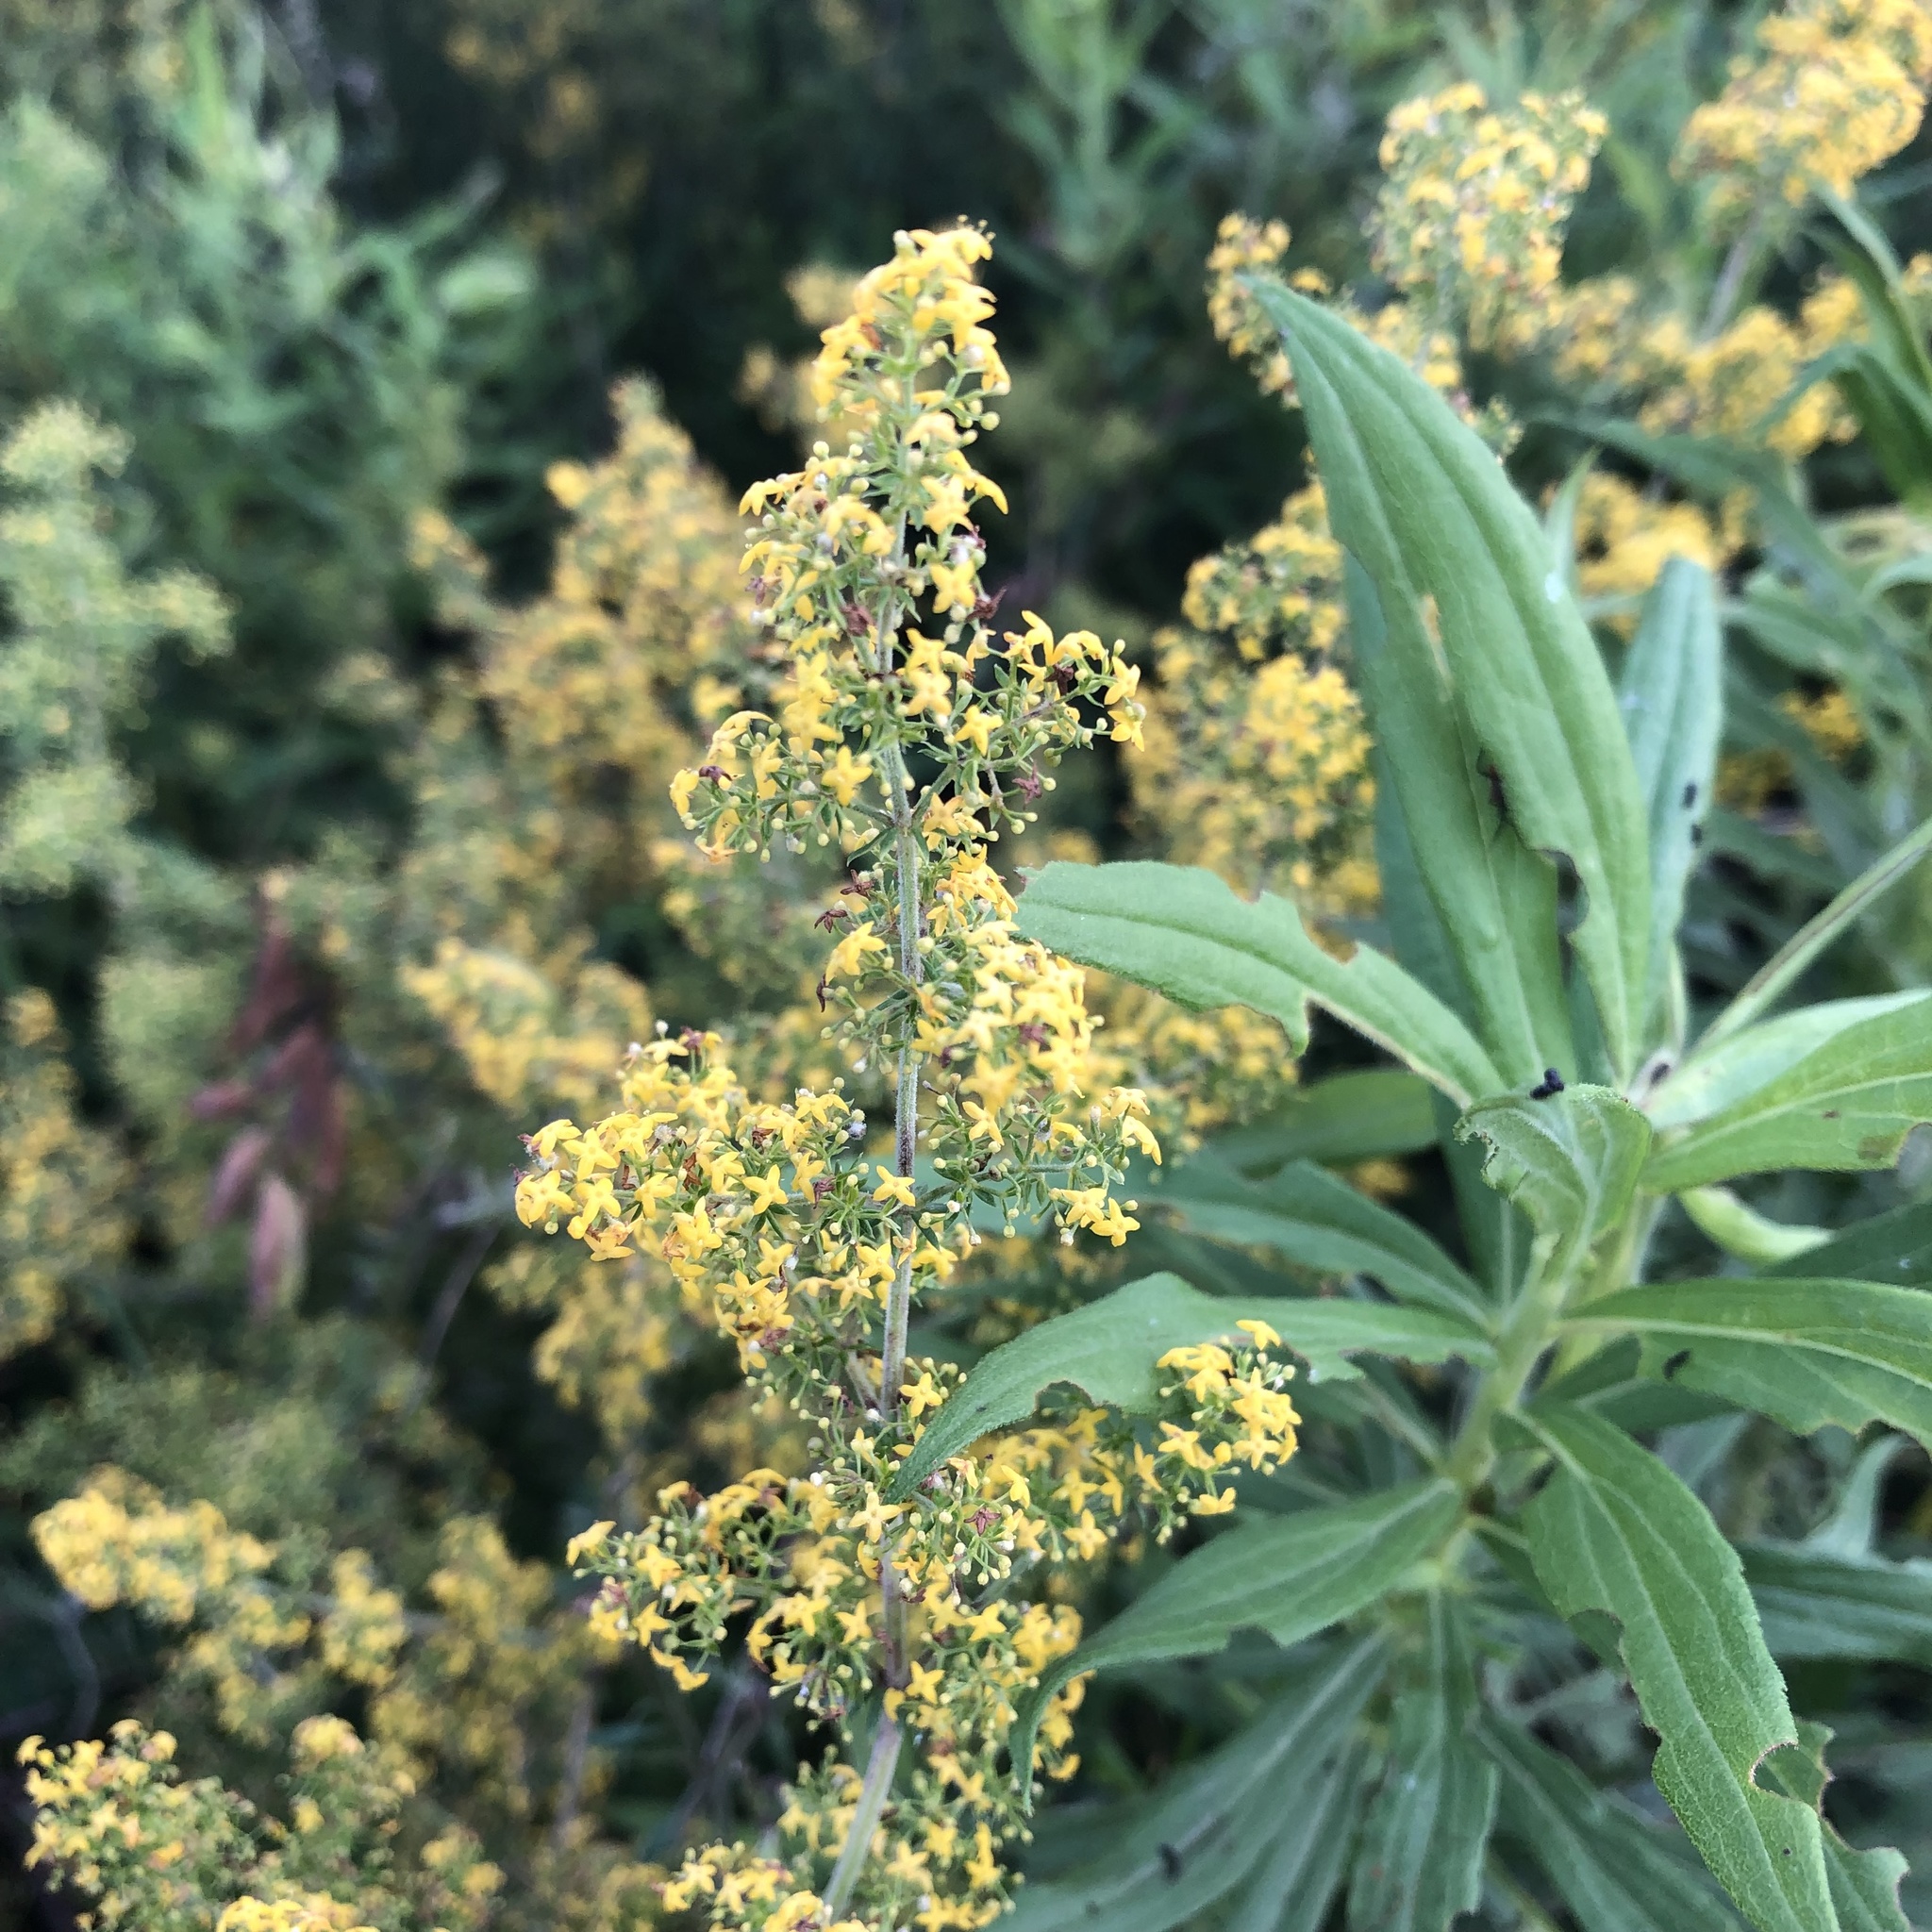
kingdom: Plantae
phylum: Tracheophyta
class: Magnoliopsida
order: Gentianales
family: Rubiaceae
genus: Galium
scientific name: Galium verum
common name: Lady's bedstraw
